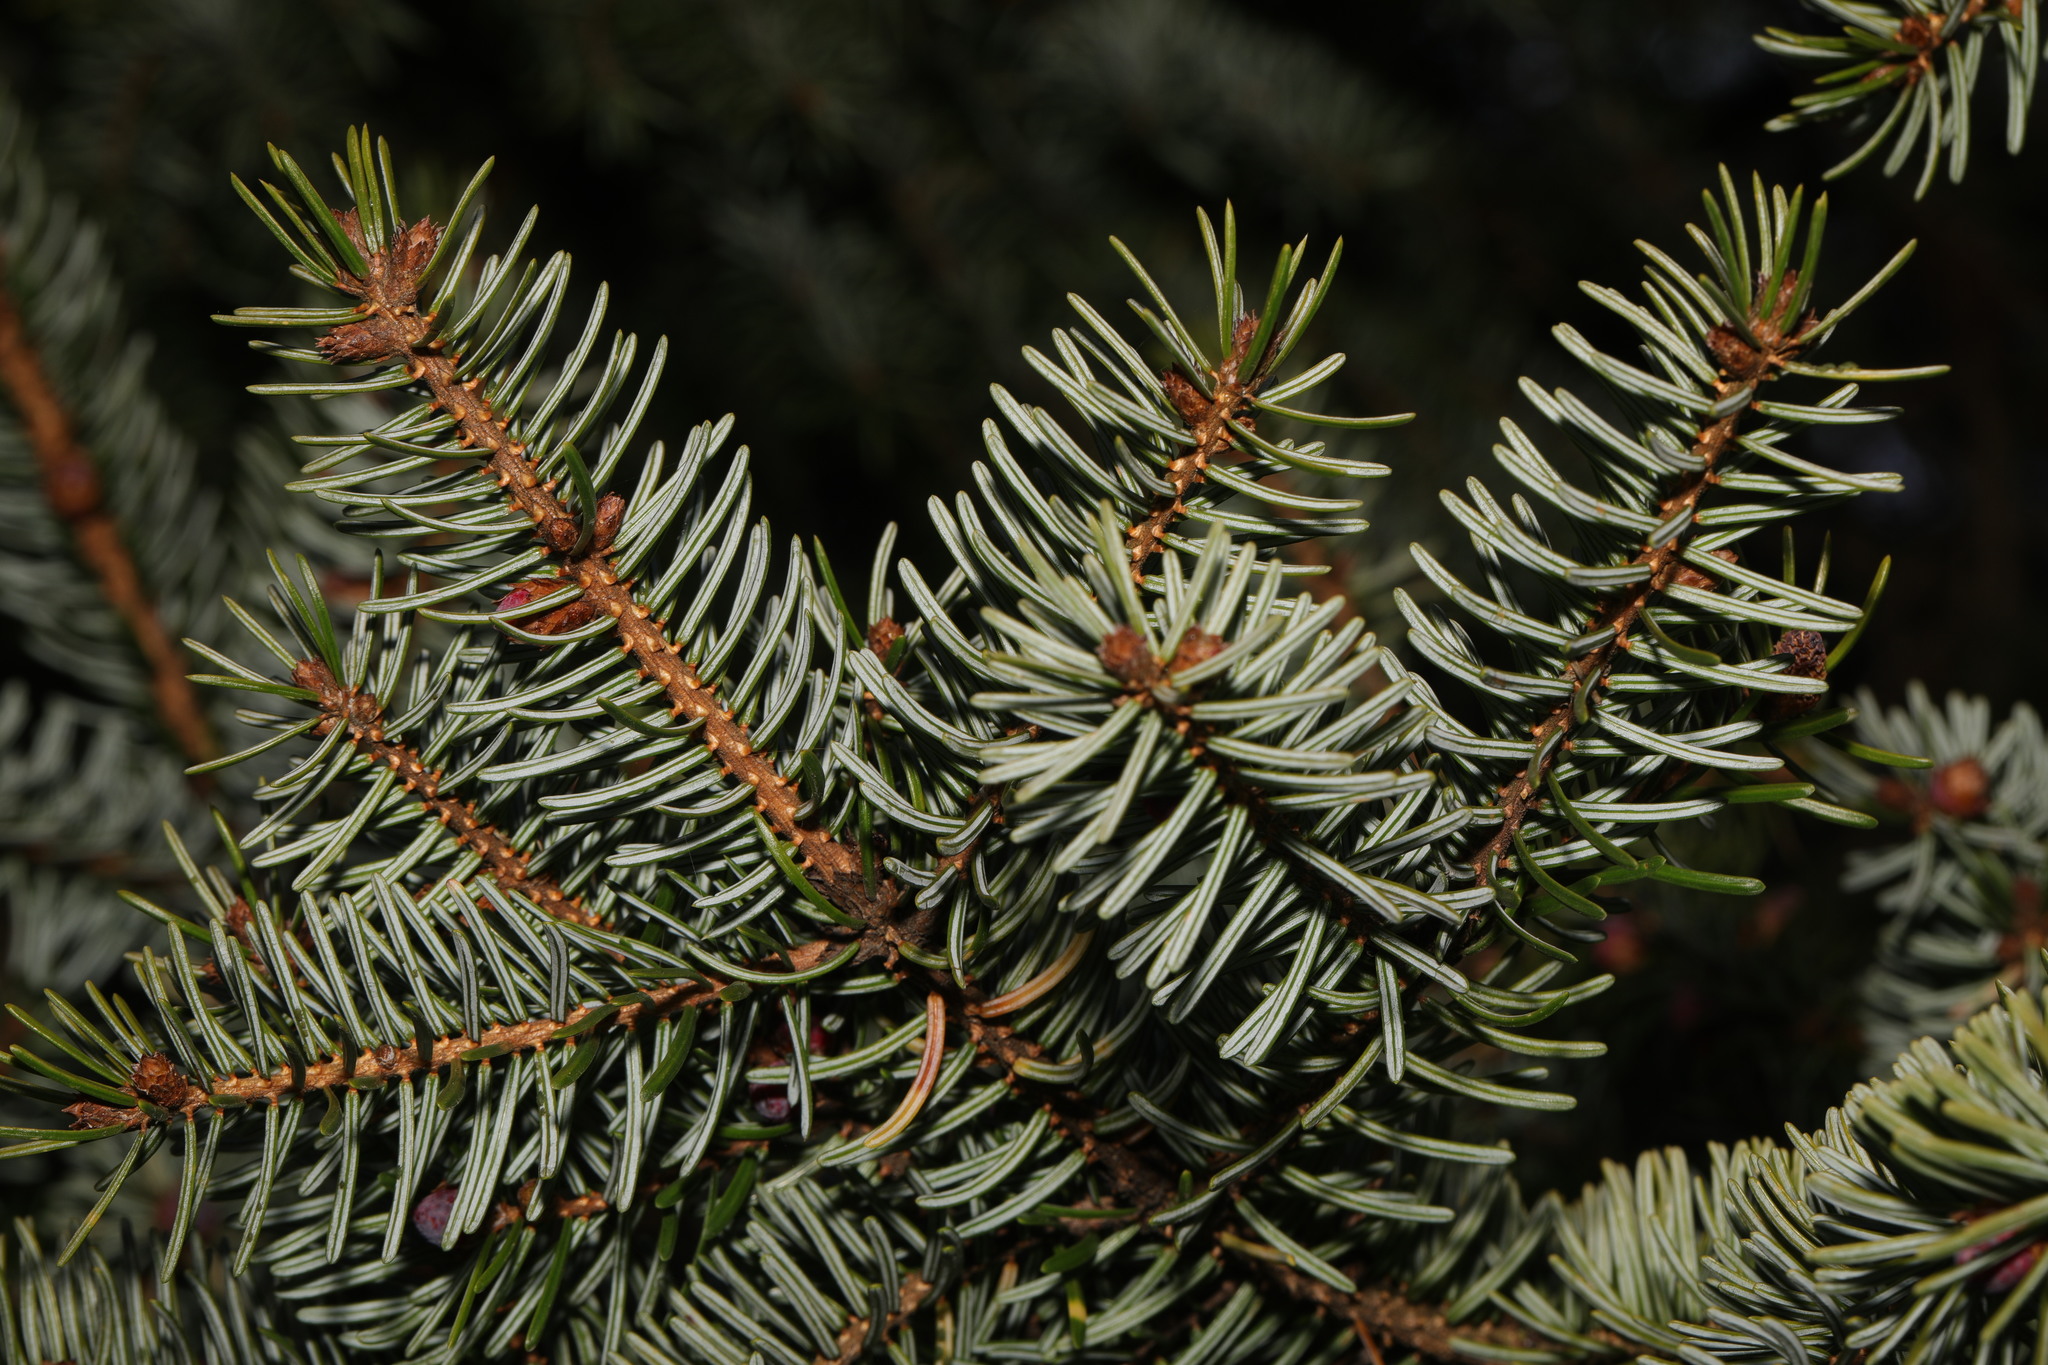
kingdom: Plantae
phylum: Tracheophyta
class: Pinopsida
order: Pinales
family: Pinaceae
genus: Picea
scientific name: Picea sitchensis
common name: Sitka spruce
